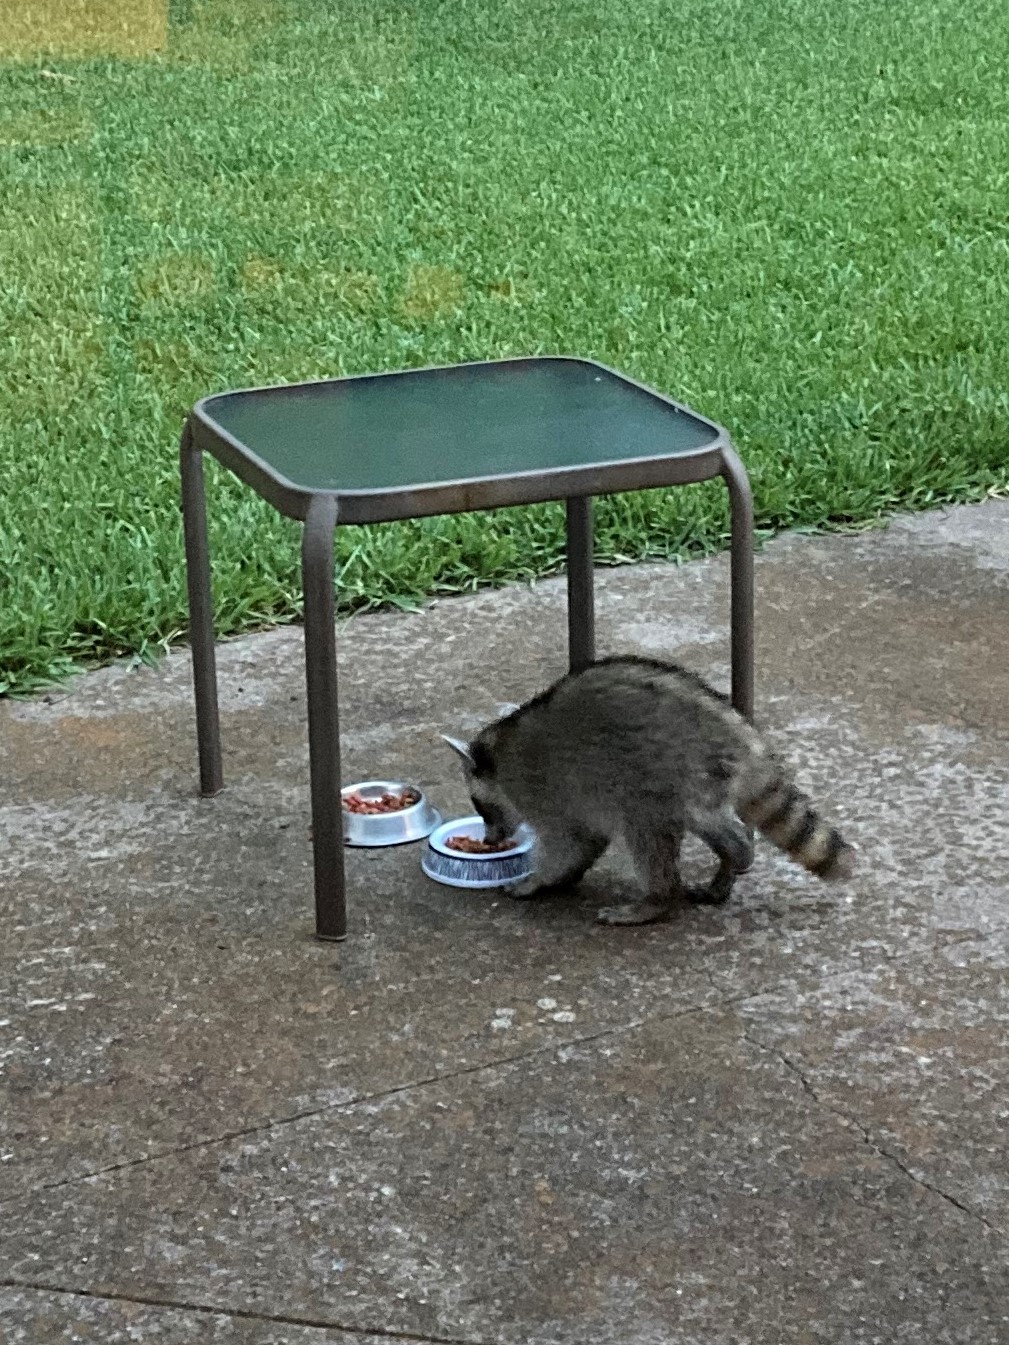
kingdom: Animalia
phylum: Chordata
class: Mammalia
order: Carnivora
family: Procyonidae
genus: Procyon
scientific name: Procyon lotor
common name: Raccoon
